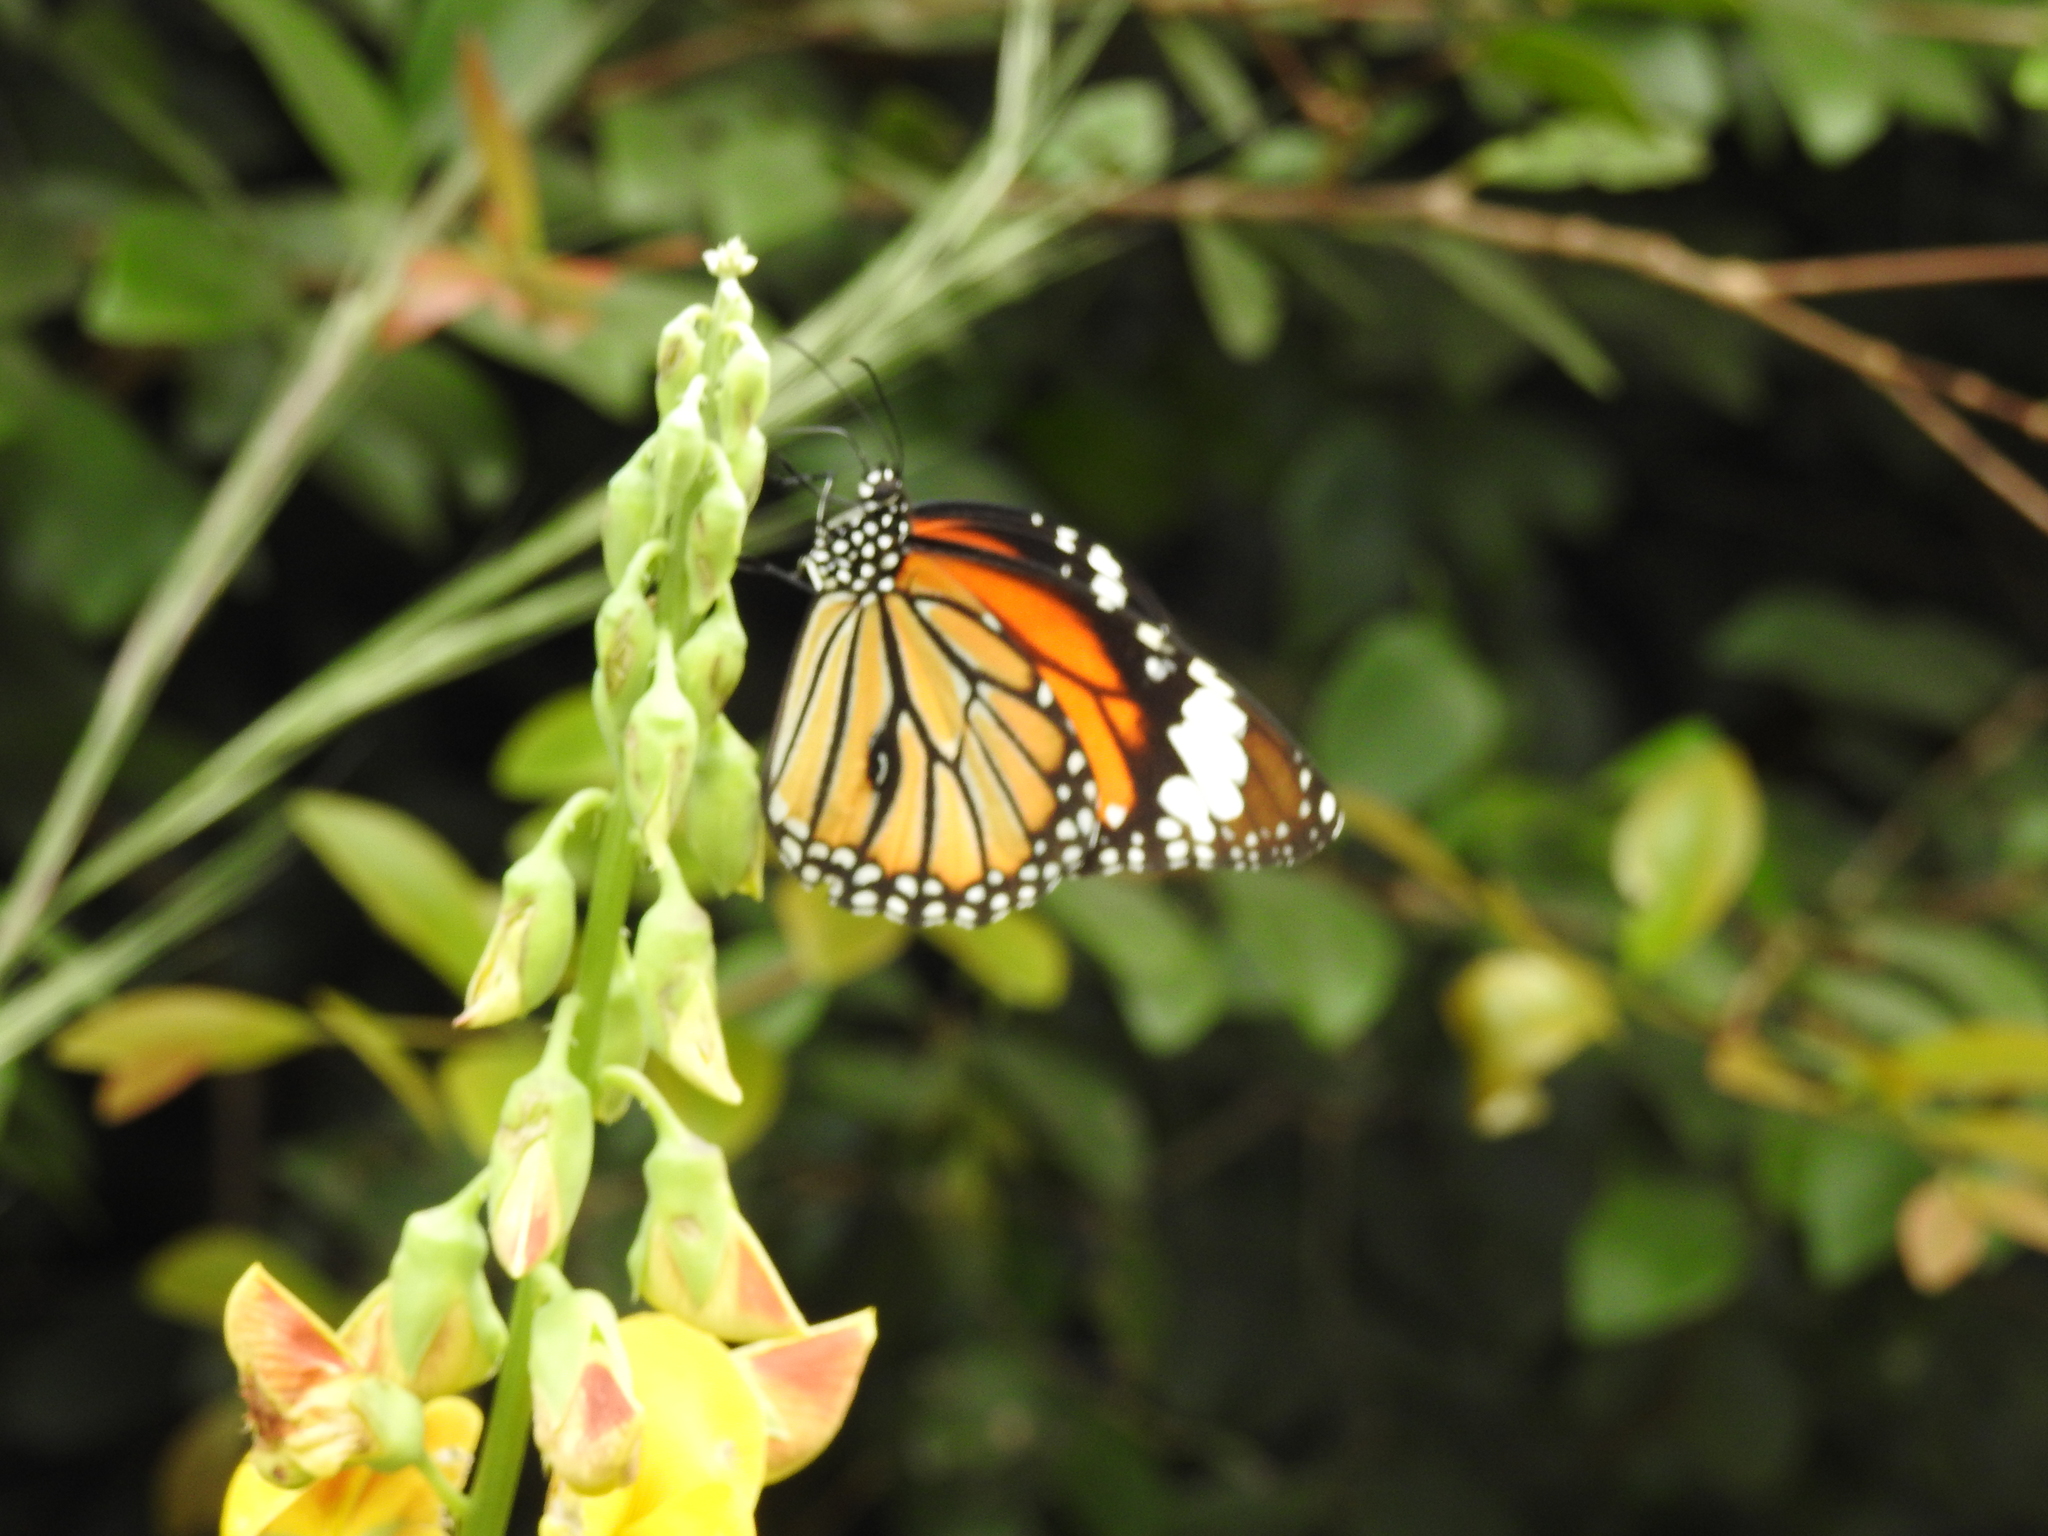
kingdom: Animalia
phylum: Arthropoda
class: Insecta
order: Lepidoptera
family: Nymphalidae
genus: Danaus
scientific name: Danaus genutia
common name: Common tiger butterfly
